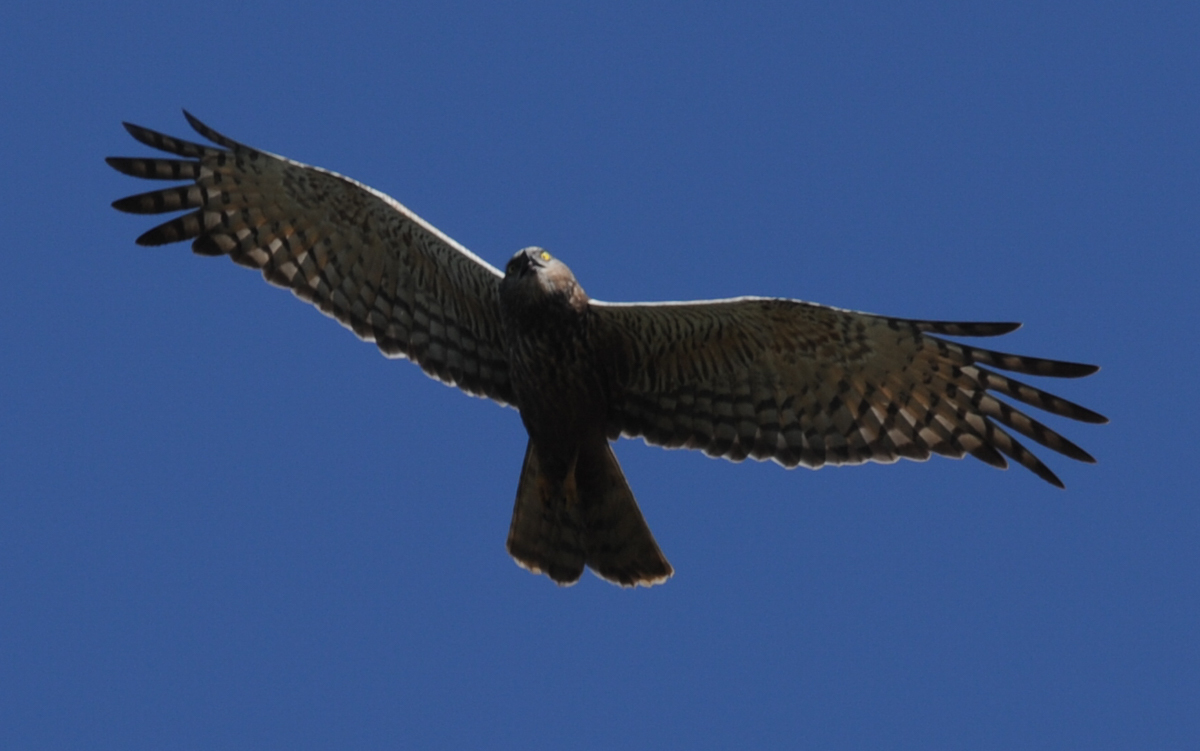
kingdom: Animalia
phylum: Chordata
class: Aves
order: Accipitriformes
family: Accipitridae
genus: Circus
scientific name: Circus ranivorus
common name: African marsh-harrier
